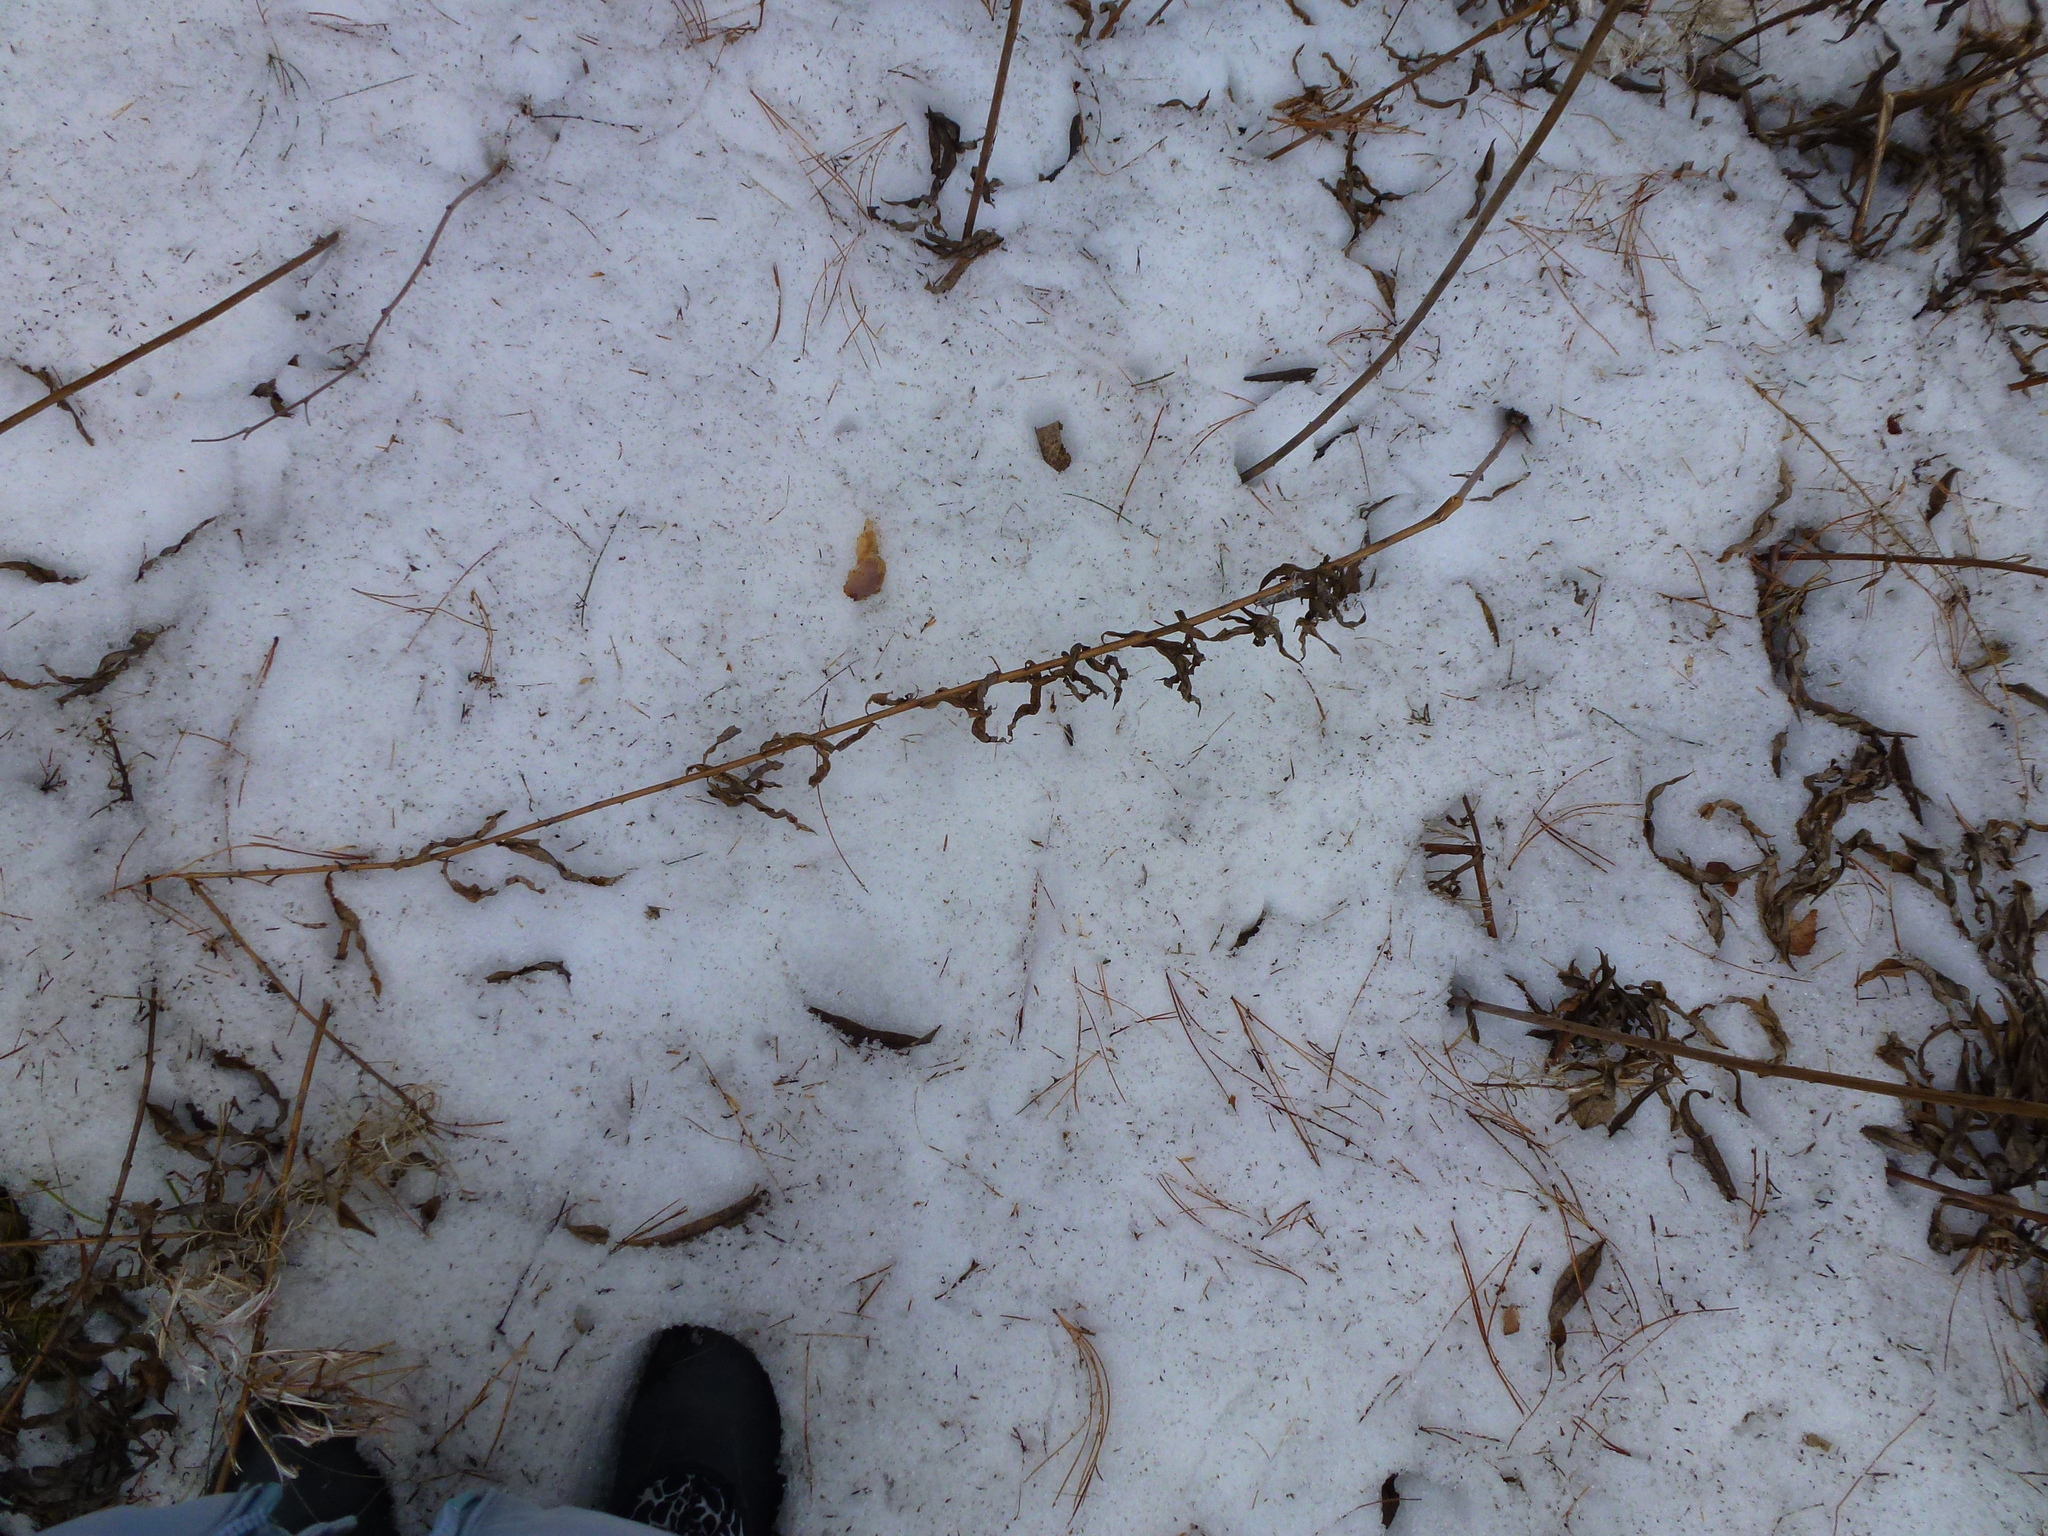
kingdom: Plantae
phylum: Tracheophyta
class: Magnoliopsida
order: Myrtales
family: Onagraceae
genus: Chamaenerion
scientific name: Chamaenerion angustifolium
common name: Fireweed
